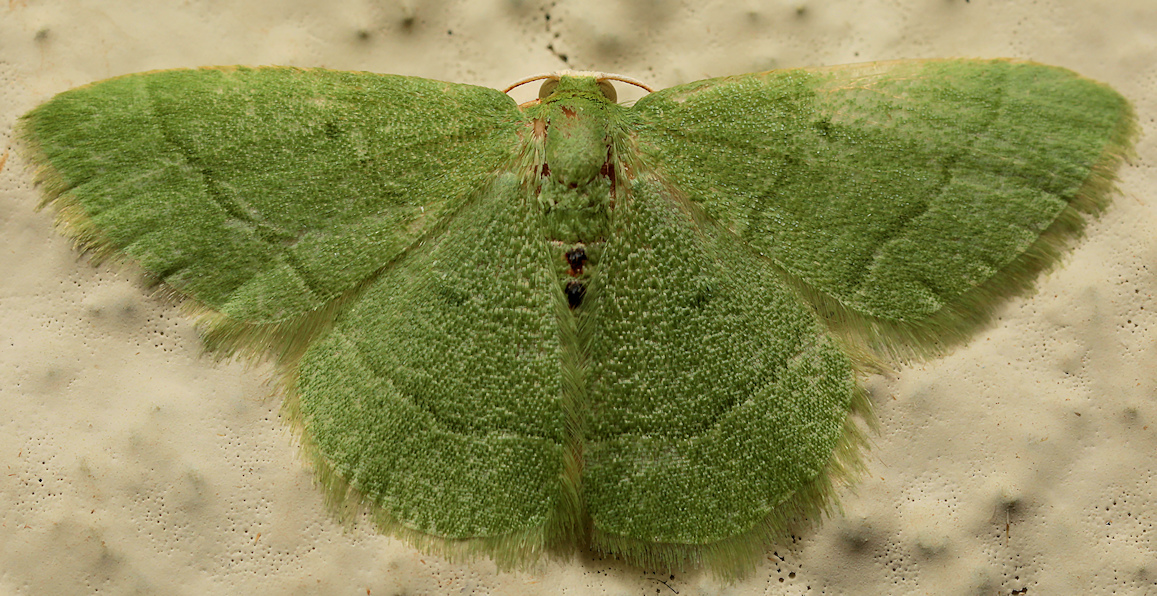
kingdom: Animalia
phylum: Arthropoda
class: Insecta
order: Lepidoptera
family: Geometridae
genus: Chlorissa
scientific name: Chlorissa attenuata
